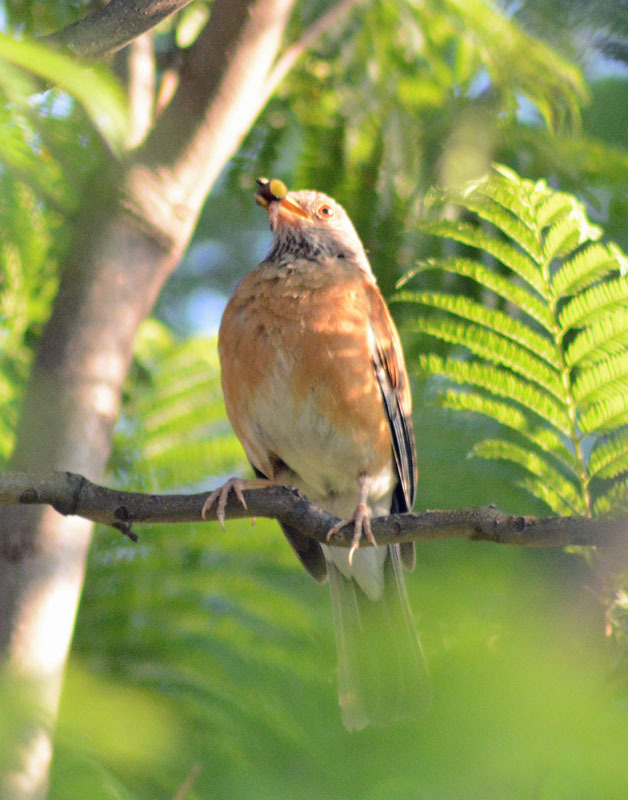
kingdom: Animalia
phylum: Chordata
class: Aves
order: Passeriformes
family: Turdidae
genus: Turdus
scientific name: Turdus rufopalliatus
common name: Rufous-backed robin
